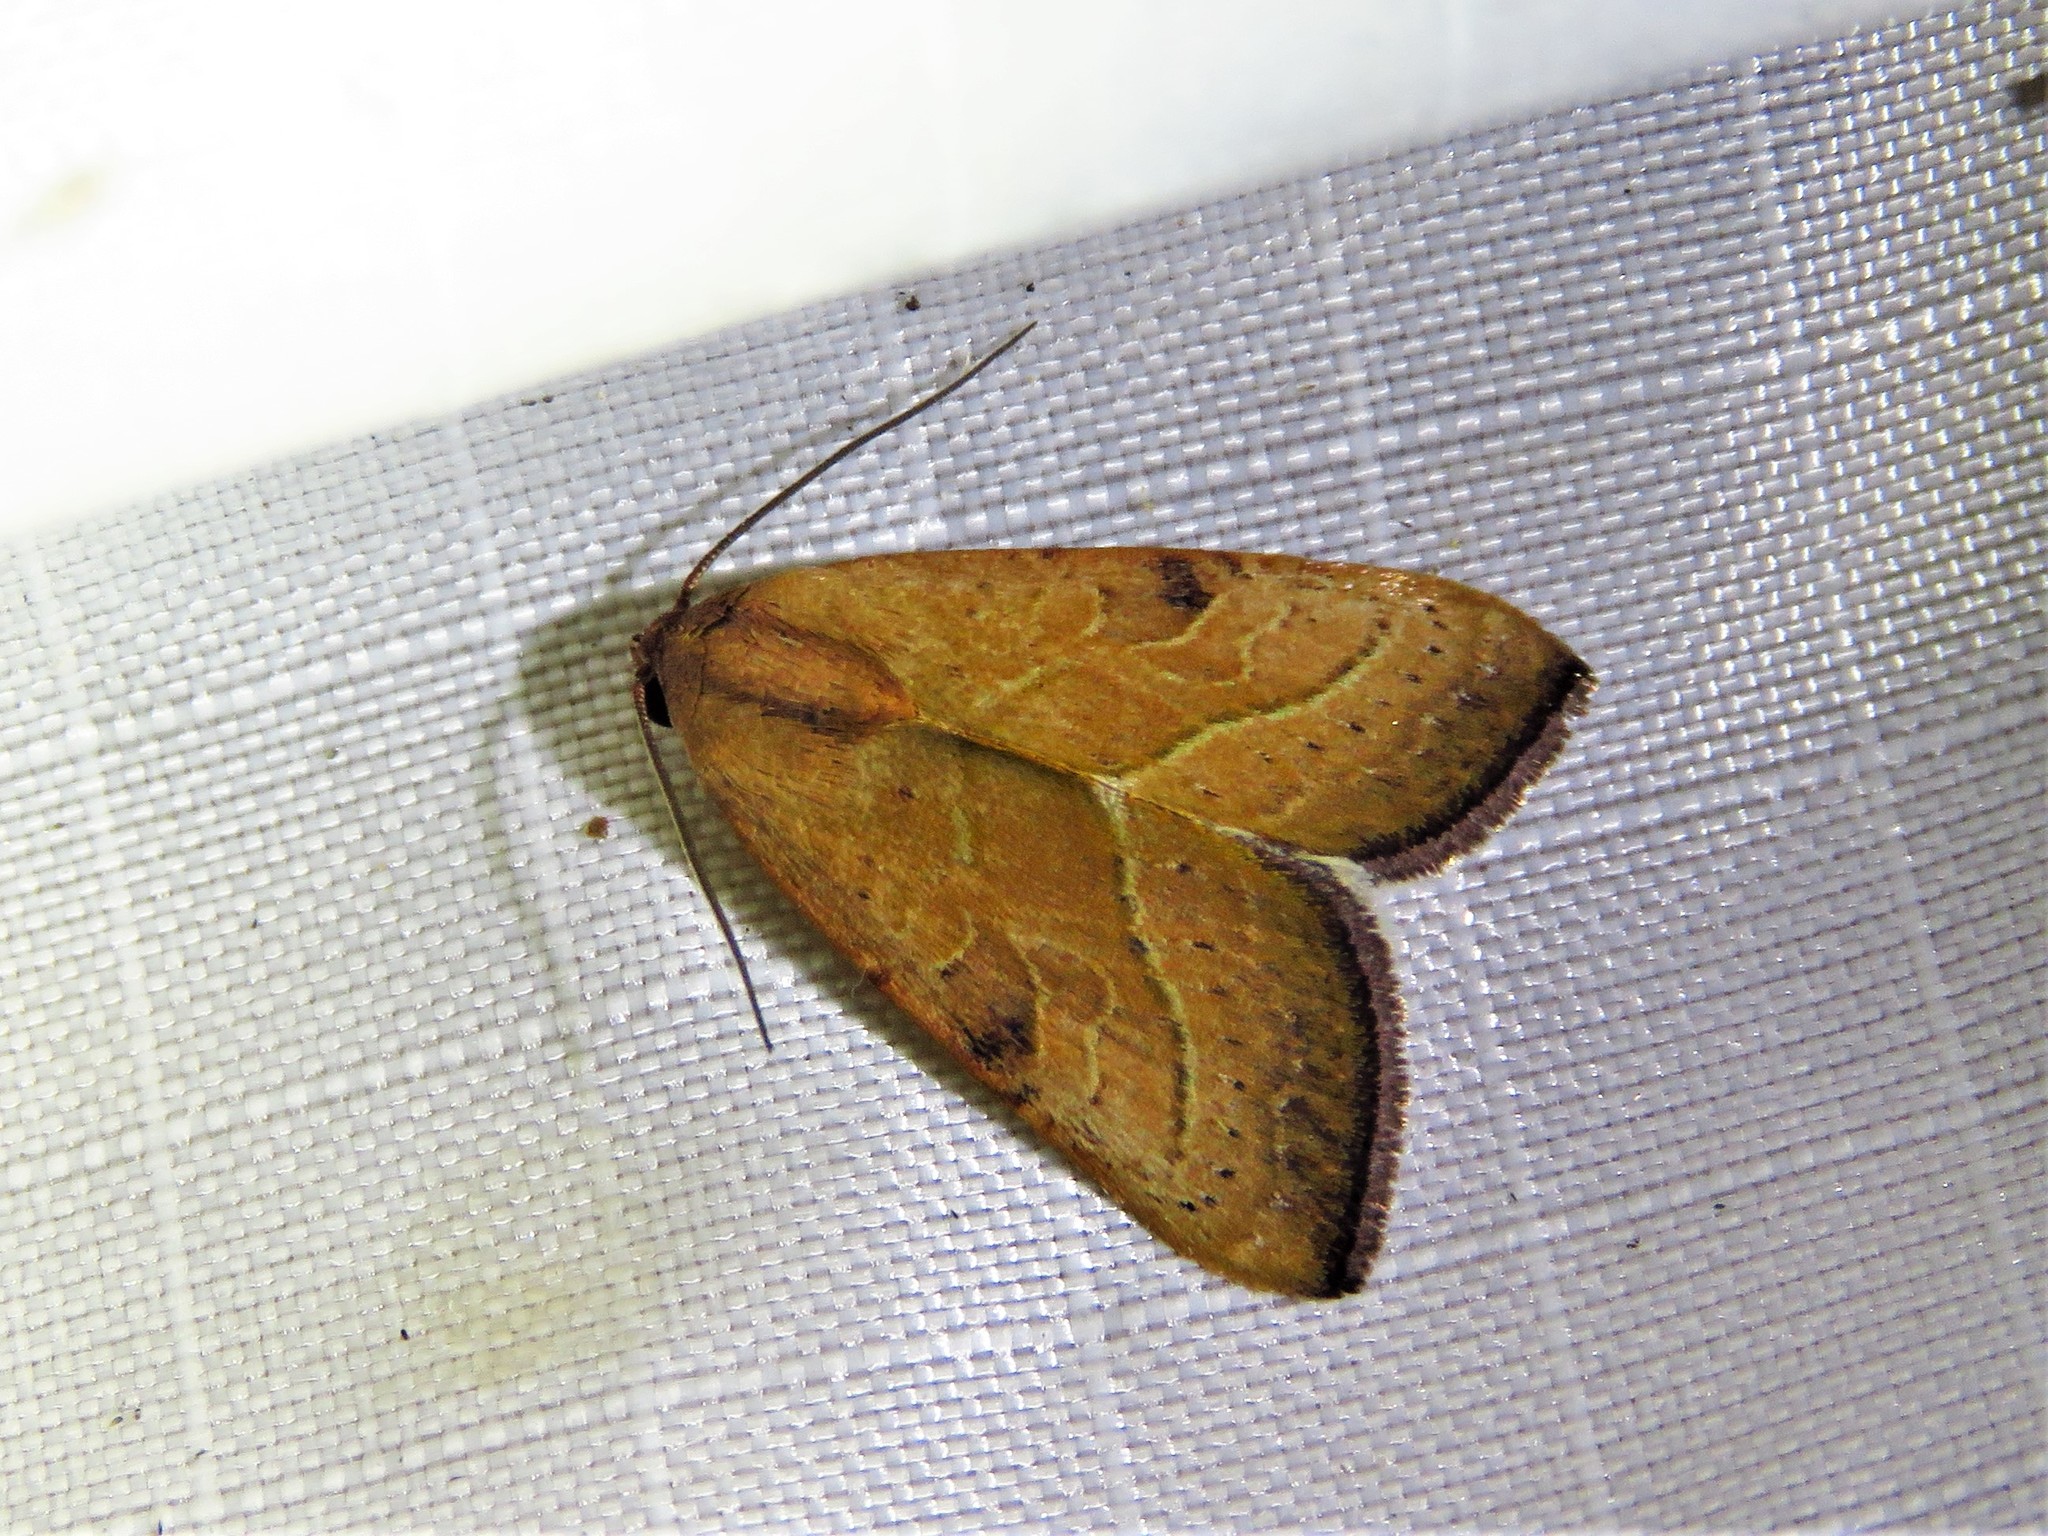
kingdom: Animalia
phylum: Arthropoda
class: Insecta
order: Lepidoptera
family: Noctuidae
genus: Galgula
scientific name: Galgula partita
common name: Wedgeling
